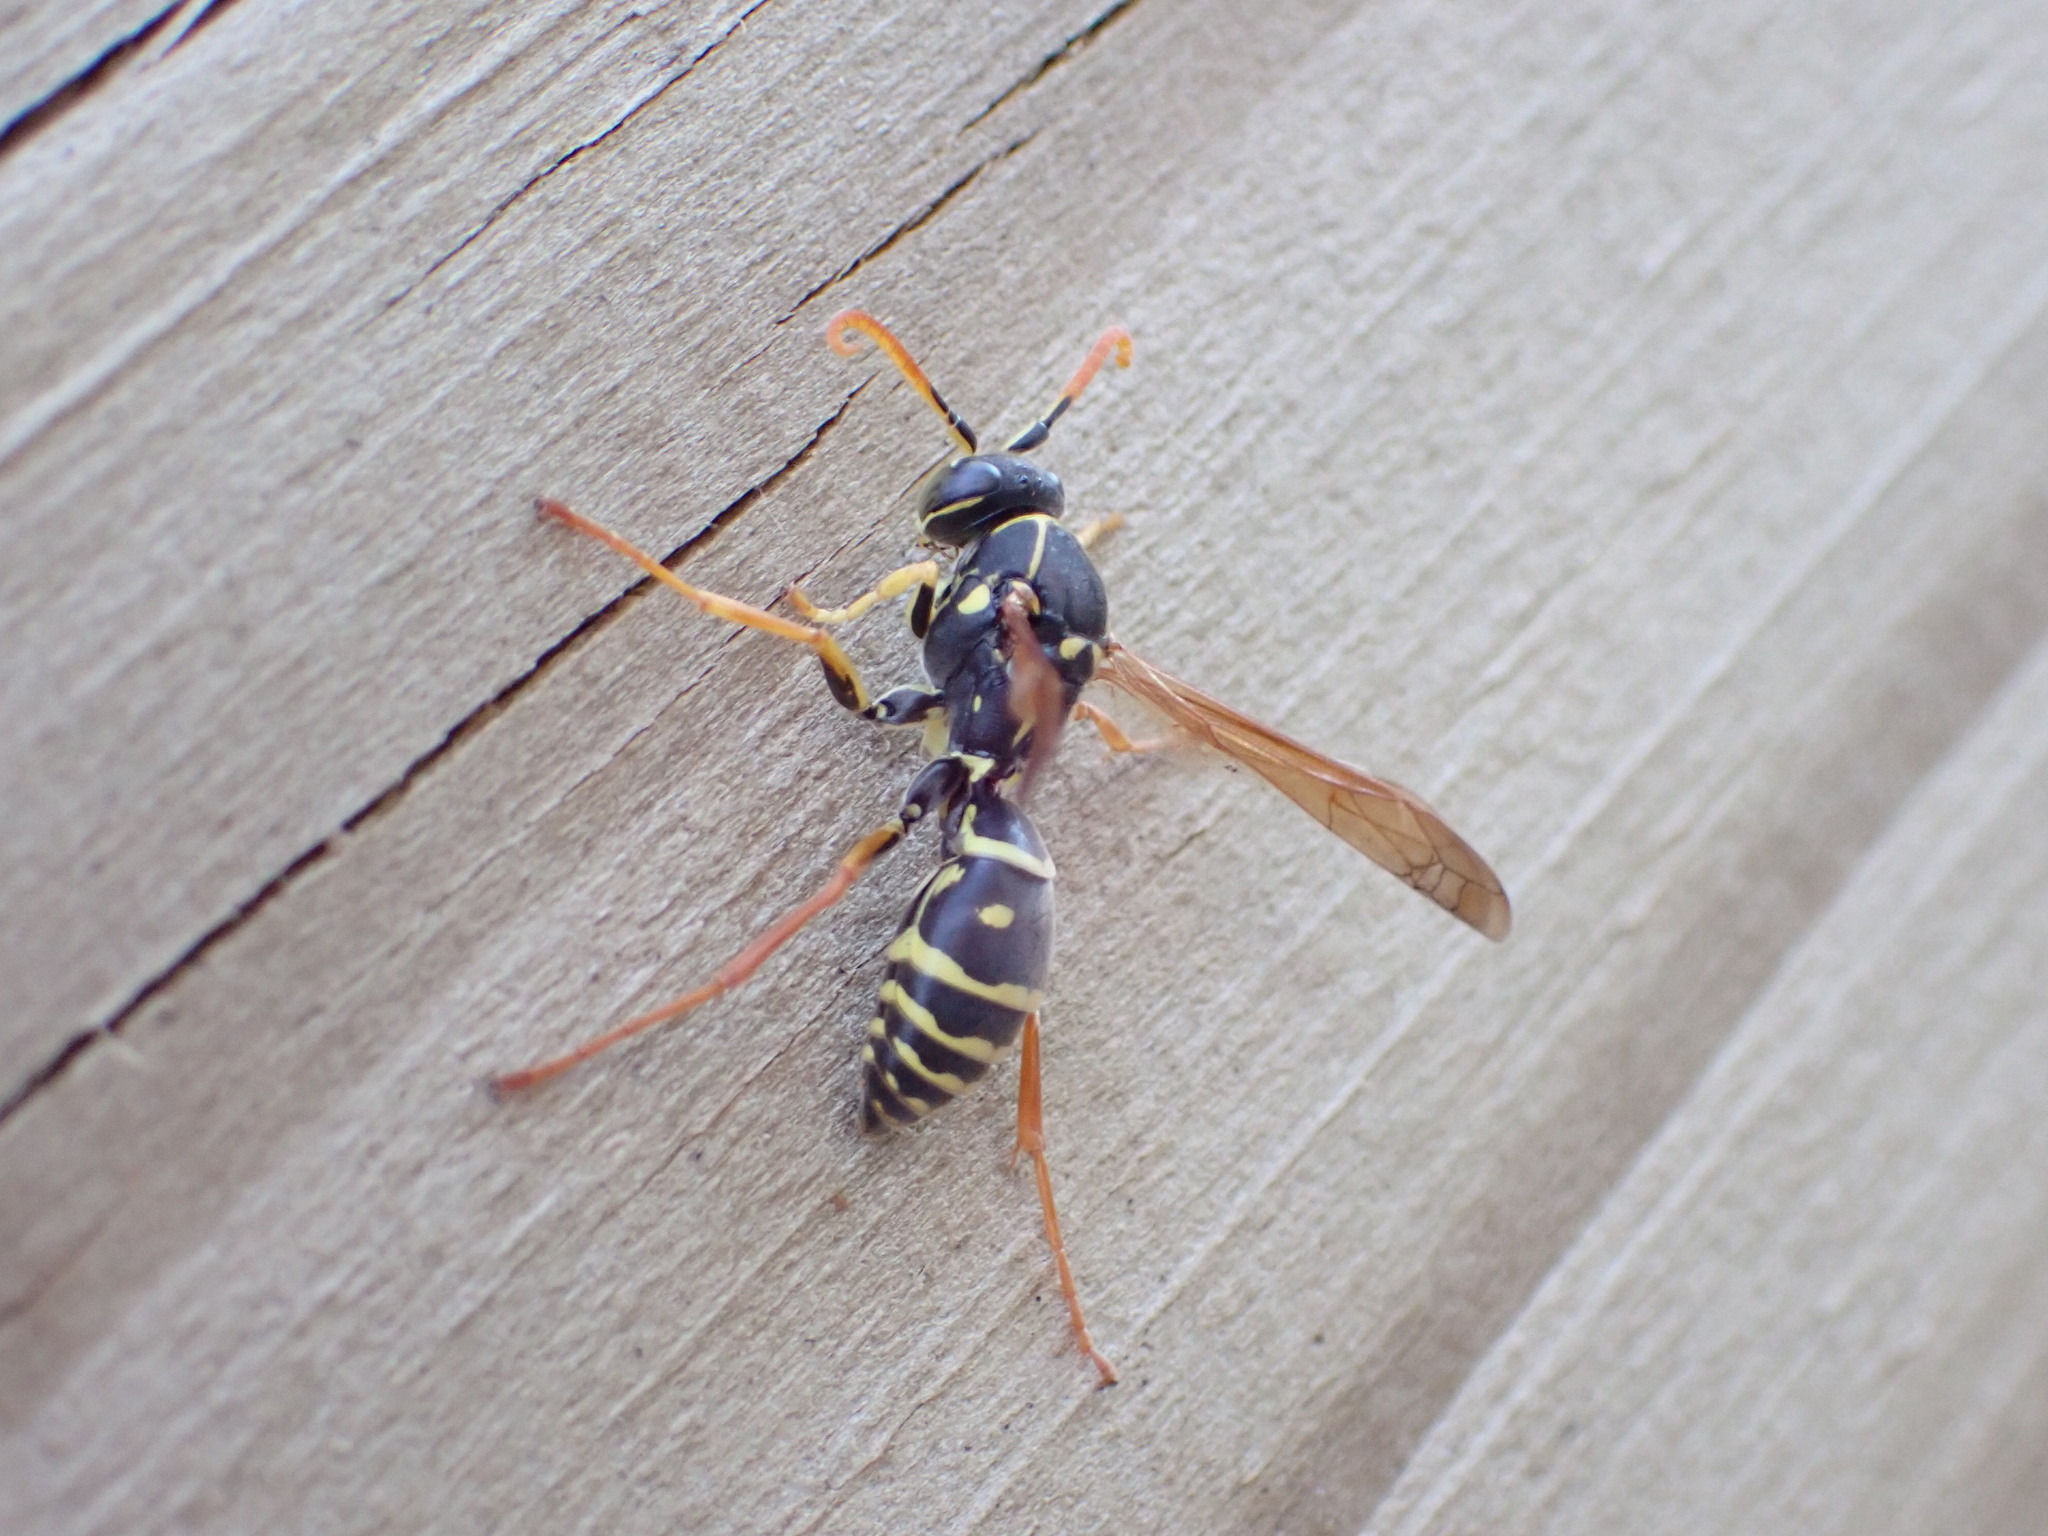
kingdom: Animalia
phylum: Arthropoda
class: Insecta
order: Hymenoptera
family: Eumenidae
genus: Polistes
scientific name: Polistes chinensis
